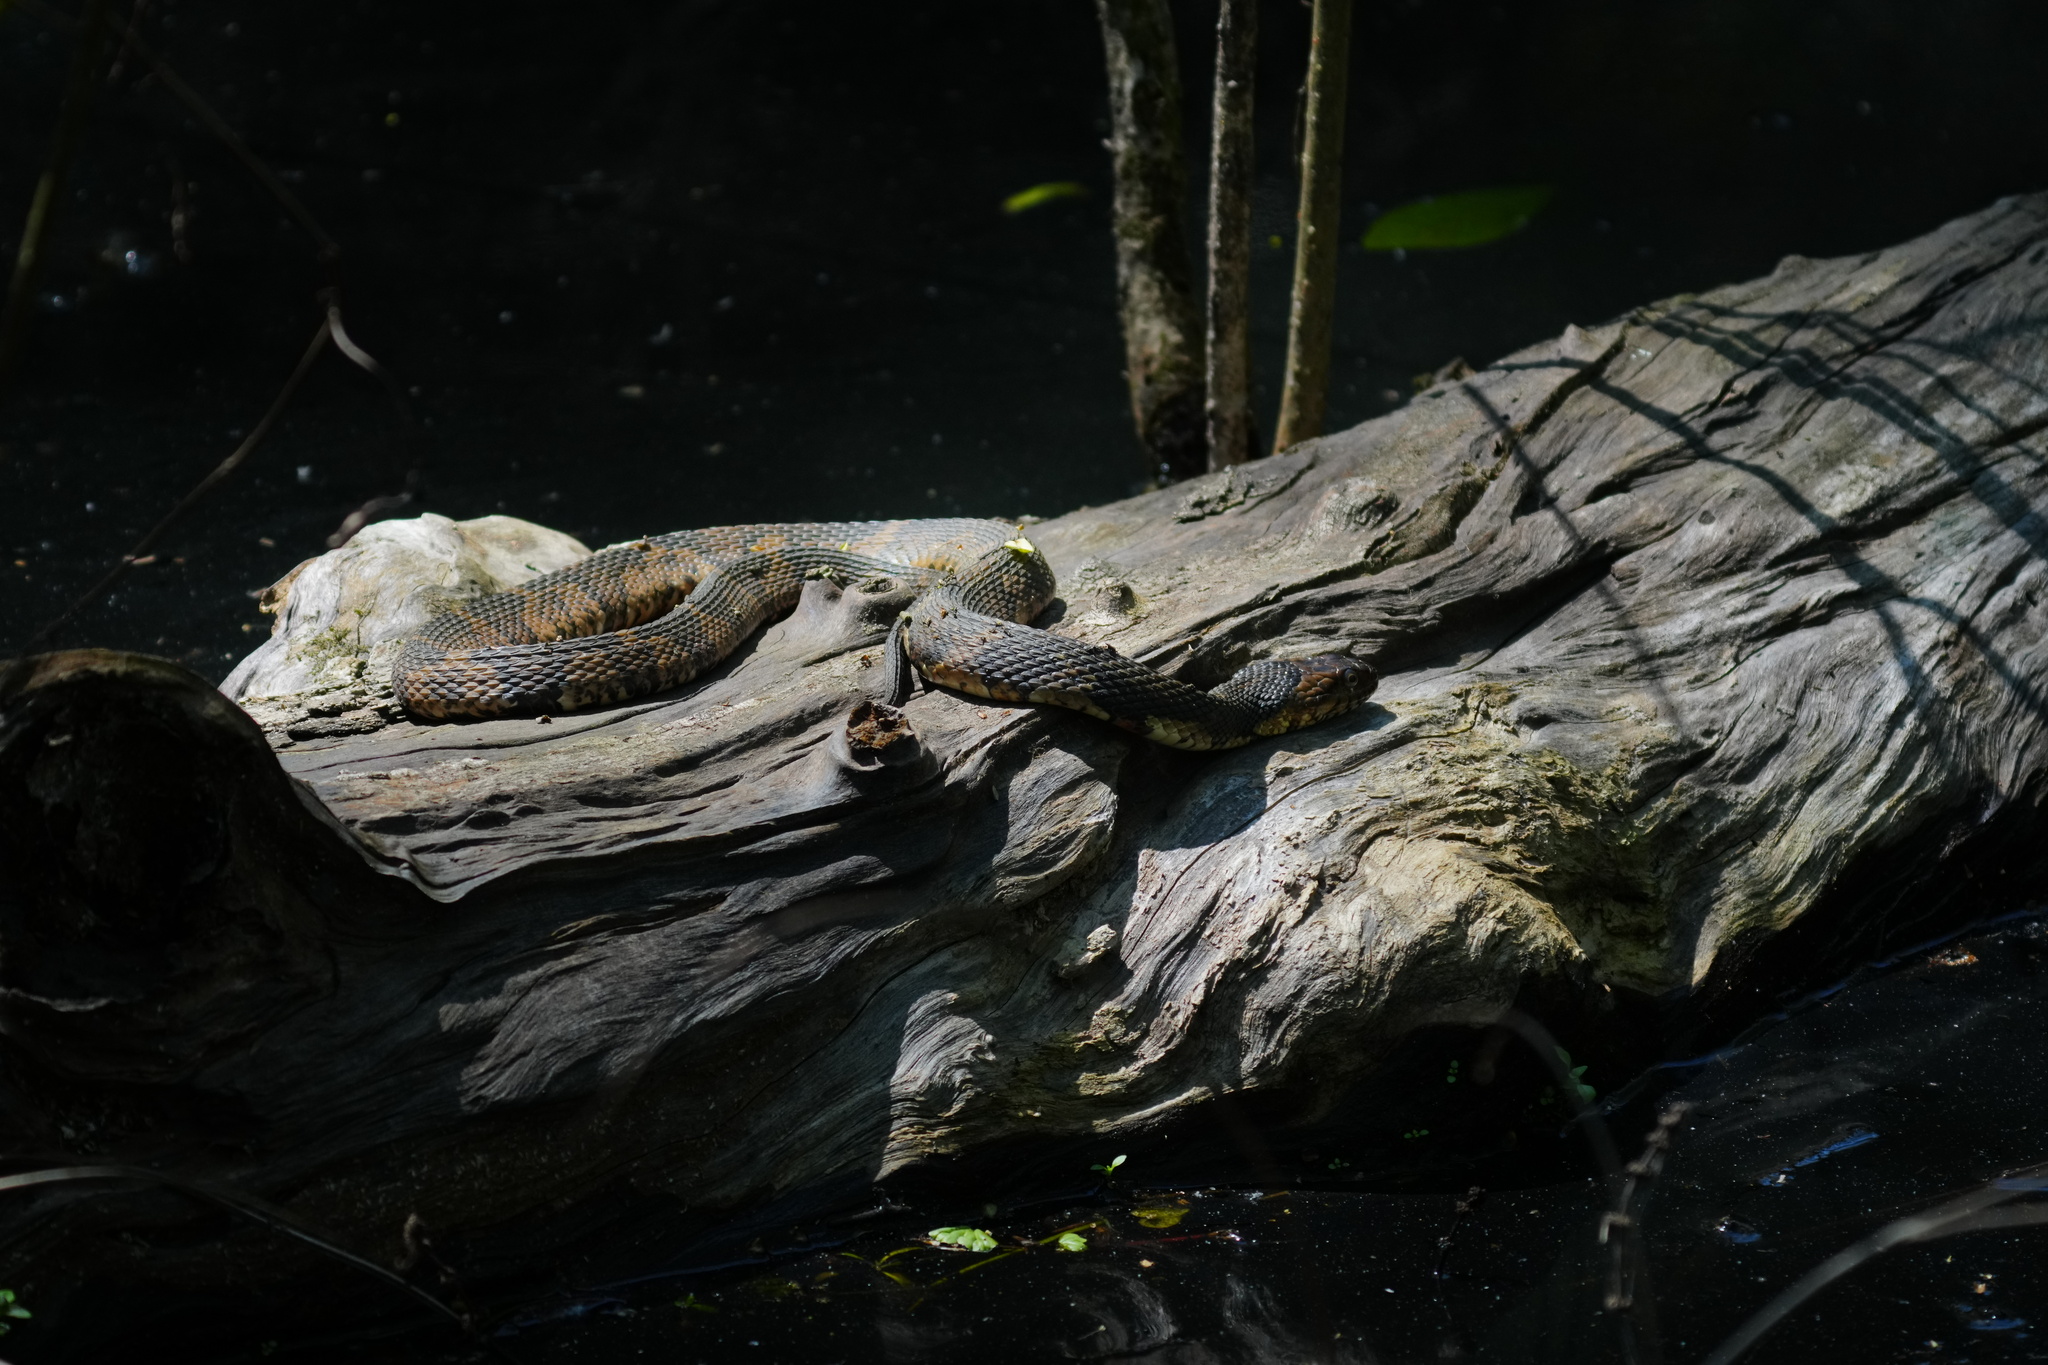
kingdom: Animalia
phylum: Chordata
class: Squamata
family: Colubridae
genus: Nerodia
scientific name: Nerodia fasciata
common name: Southern water snake
